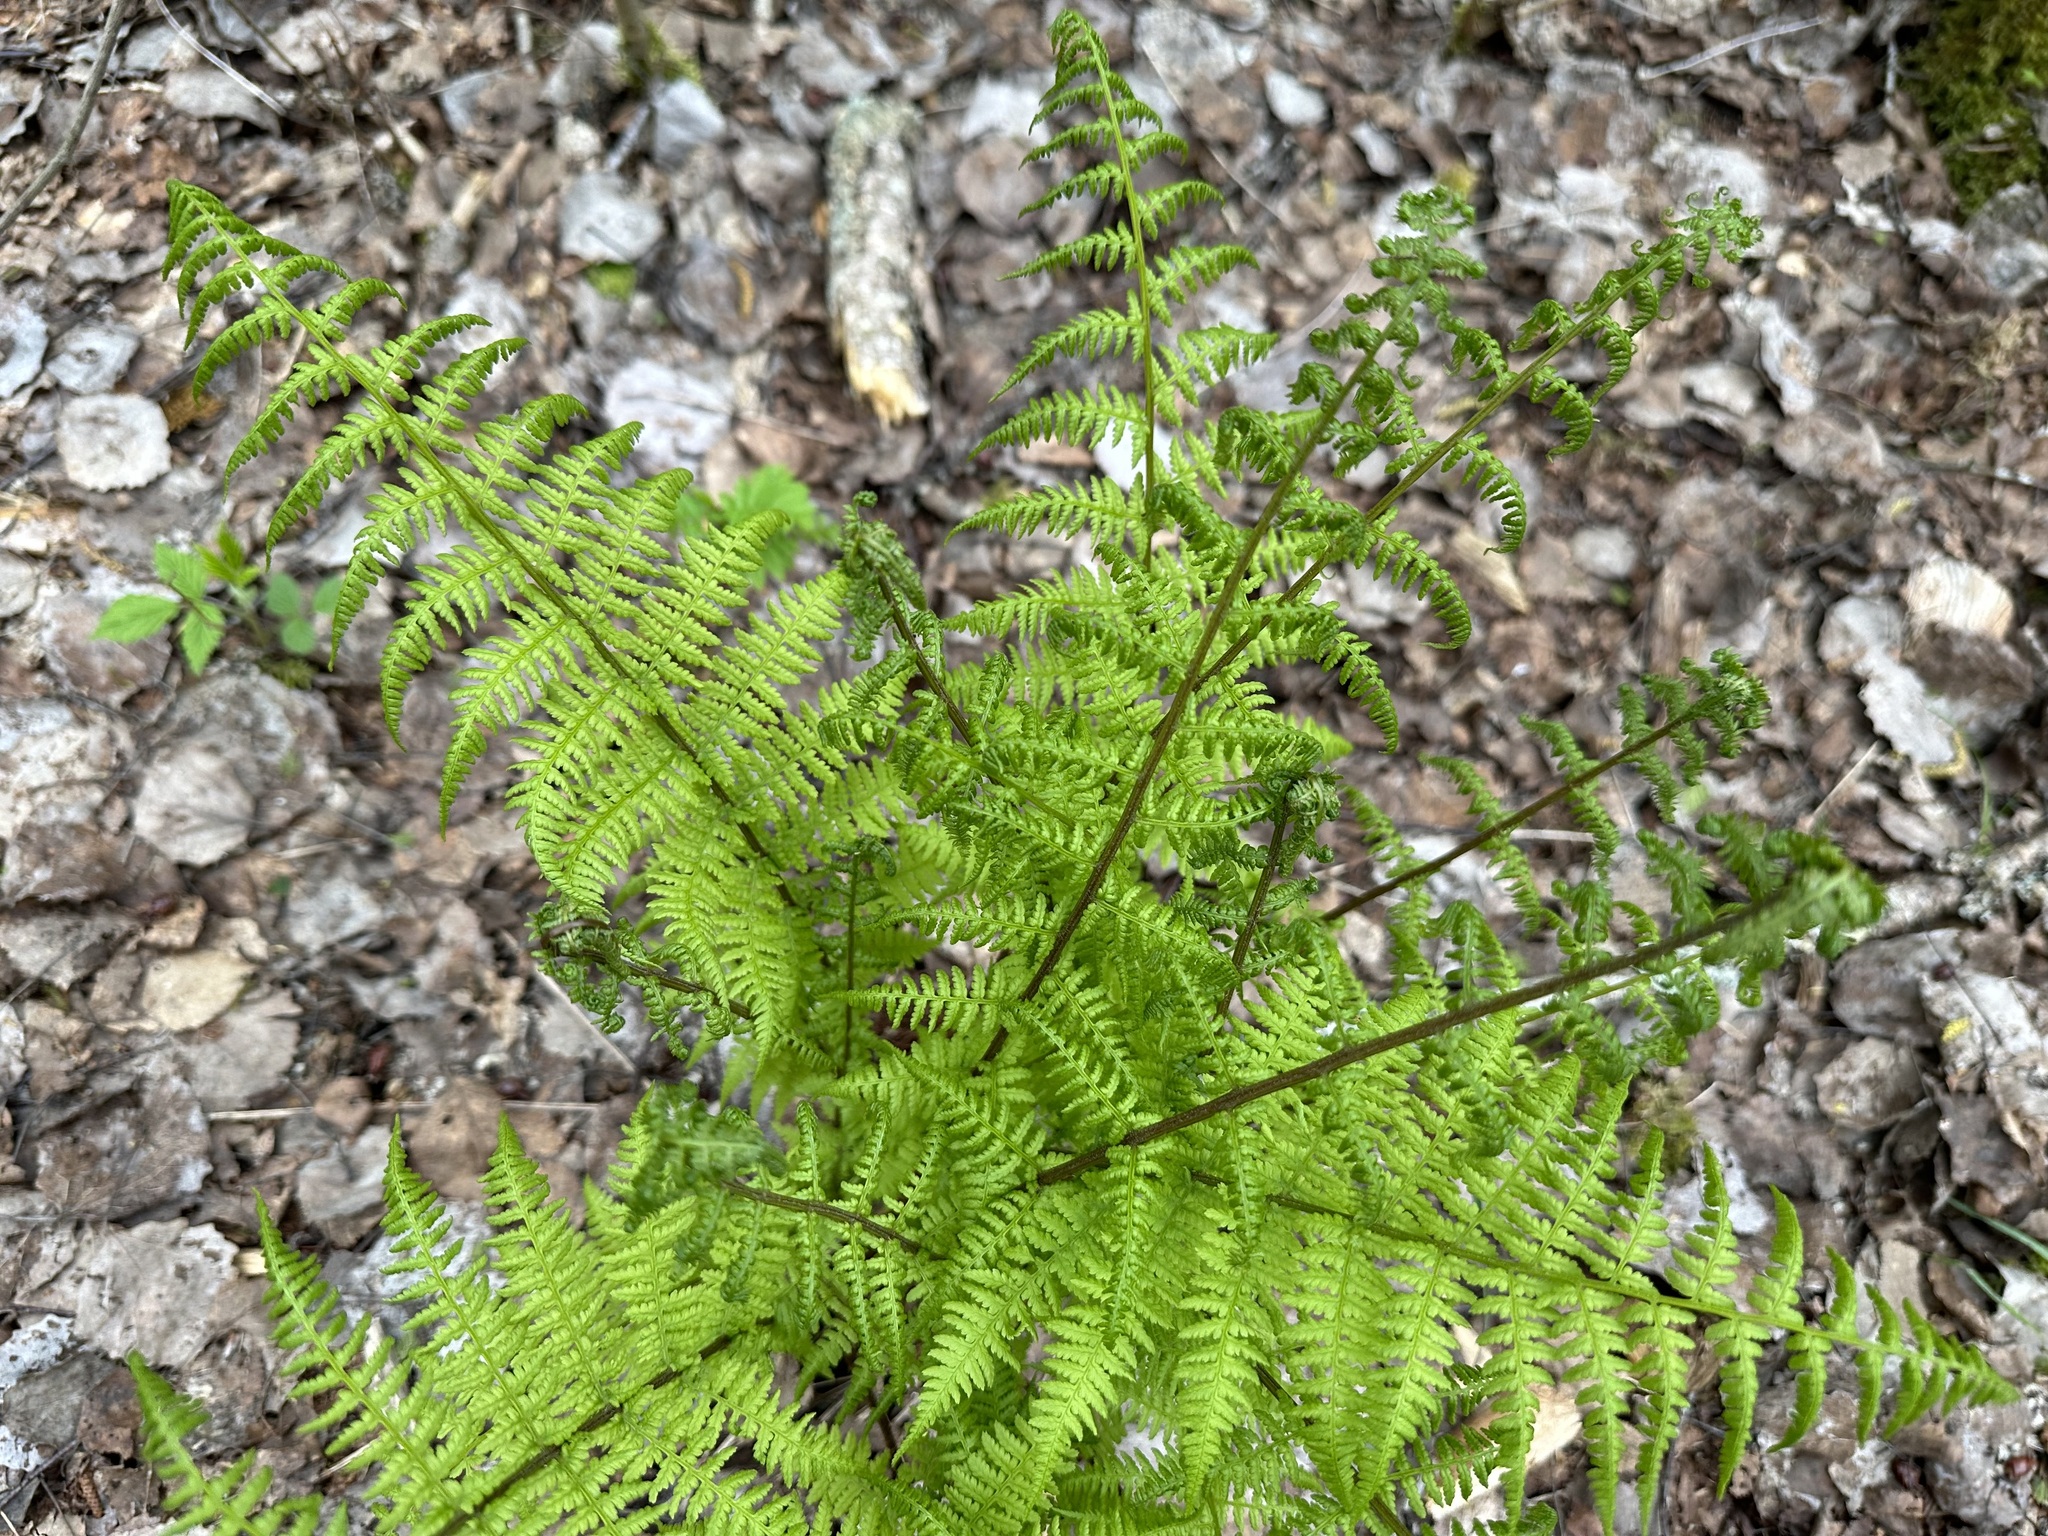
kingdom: Plantae
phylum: Tracheophyta
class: Polypodiopsida
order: Polypodiales
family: Athyriaceae
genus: Athyrium
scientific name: Athyrium filix-femina
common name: Lady fern
